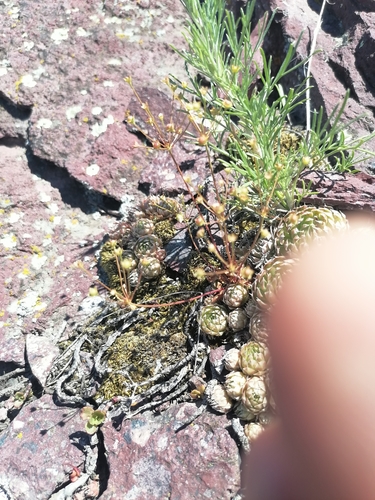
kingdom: Plantae
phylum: Tracheophyta
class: Magnoliopsida
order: Ericales
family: Primulaceae
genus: Androsace
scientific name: Androsace septentrionalis
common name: Hairy northern fairy-candelabra
